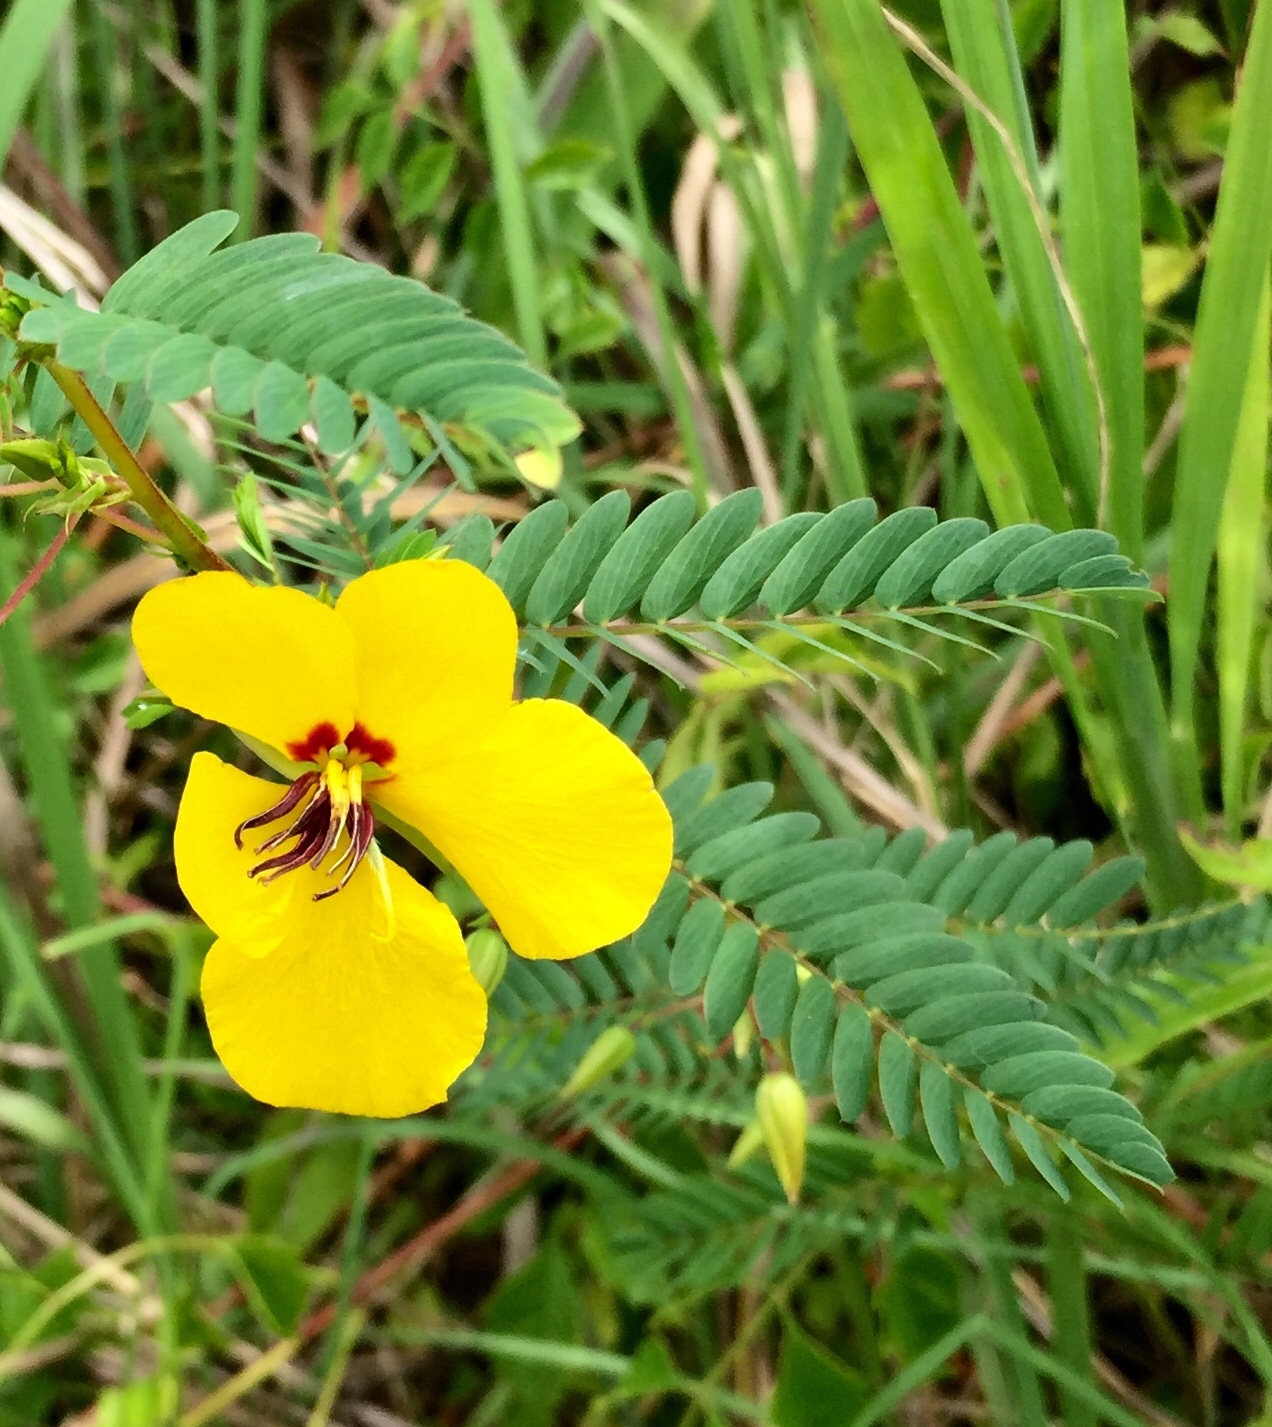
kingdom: Plantae
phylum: Tracheophyta
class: Magnoliopsida
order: Fabales
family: Fabaceae
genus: Chamaecrista
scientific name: Chamaecrista fasciculata
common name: Golden cassia
